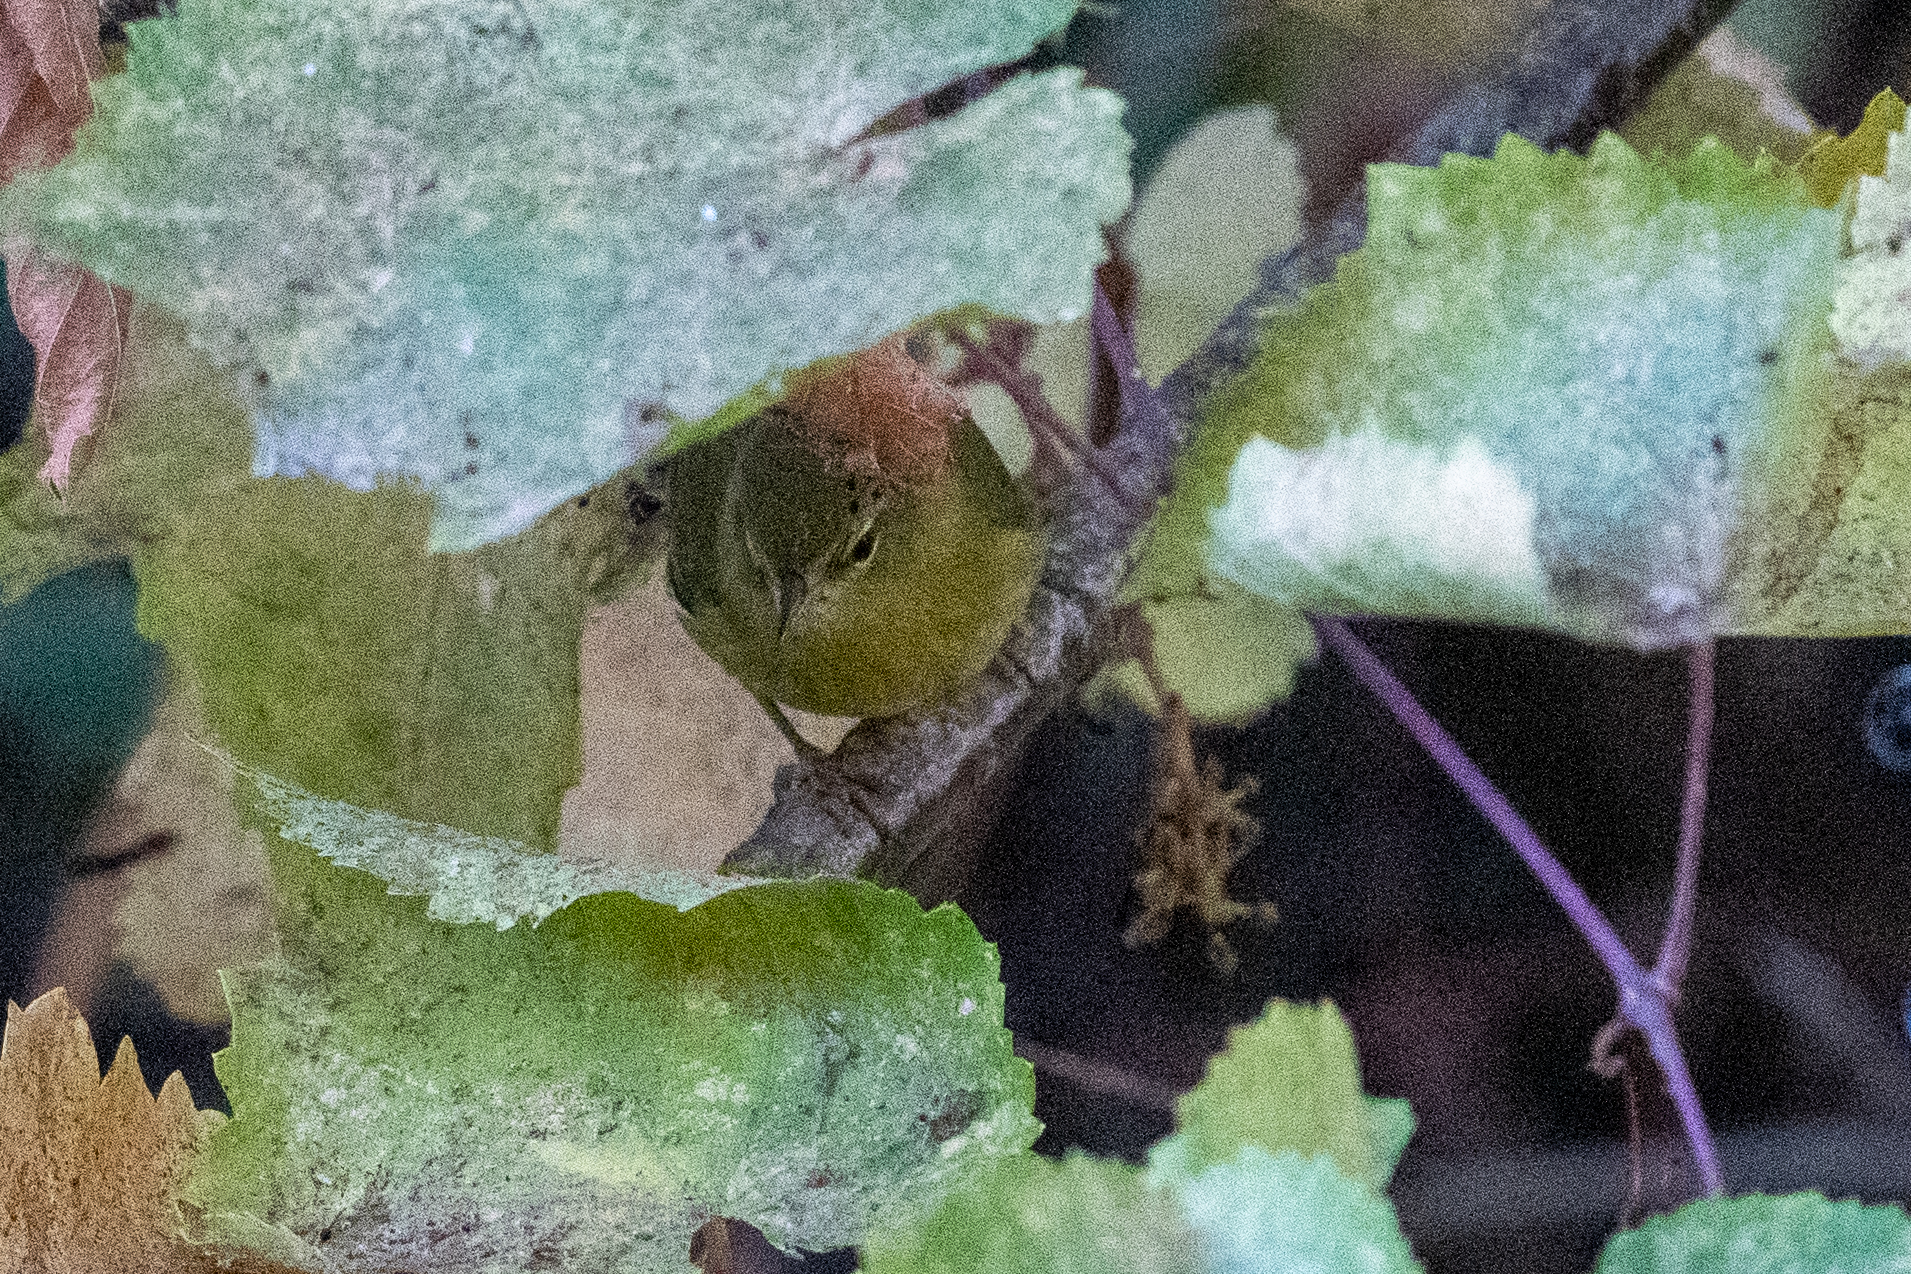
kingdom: Animalia
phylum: Chordata
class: Aves
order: Passeriformes
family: Parulidae
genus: Leiothlypis
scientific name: Leiothlypis celata
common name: Orange-crowned warbler
